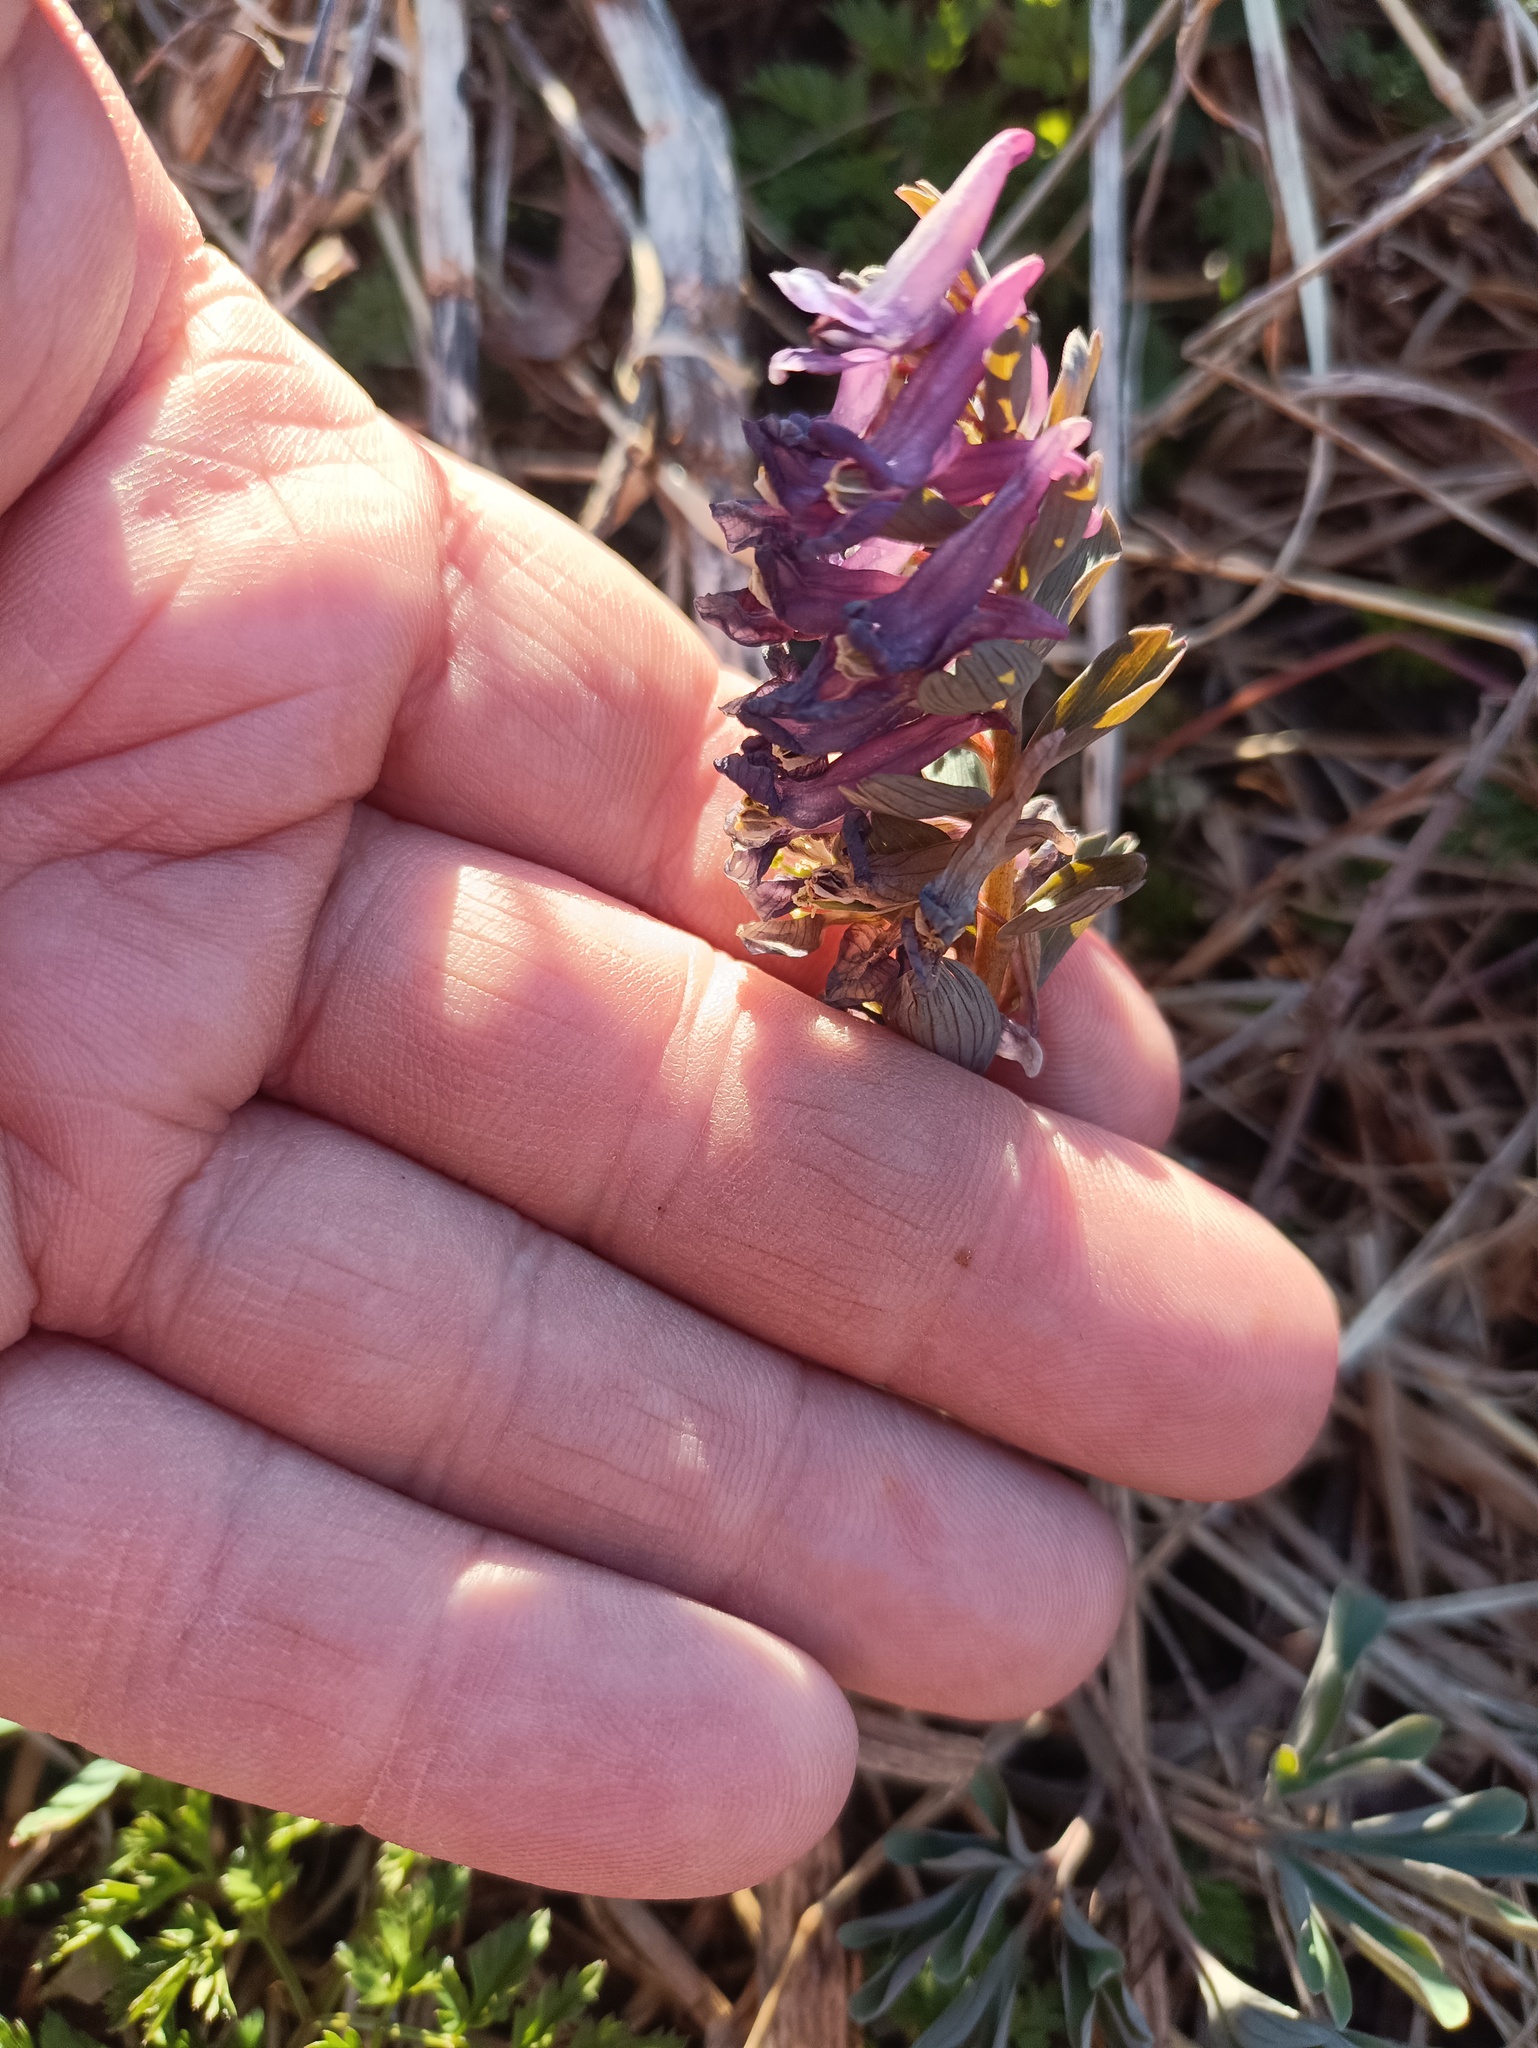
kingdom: Plantae
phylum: Tracheophyta
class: Magnoliopsida
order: Ranunculales
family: Papaveraceae
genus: Corydalis
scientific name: Corydalis solida
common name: Bird-in-a-bush
